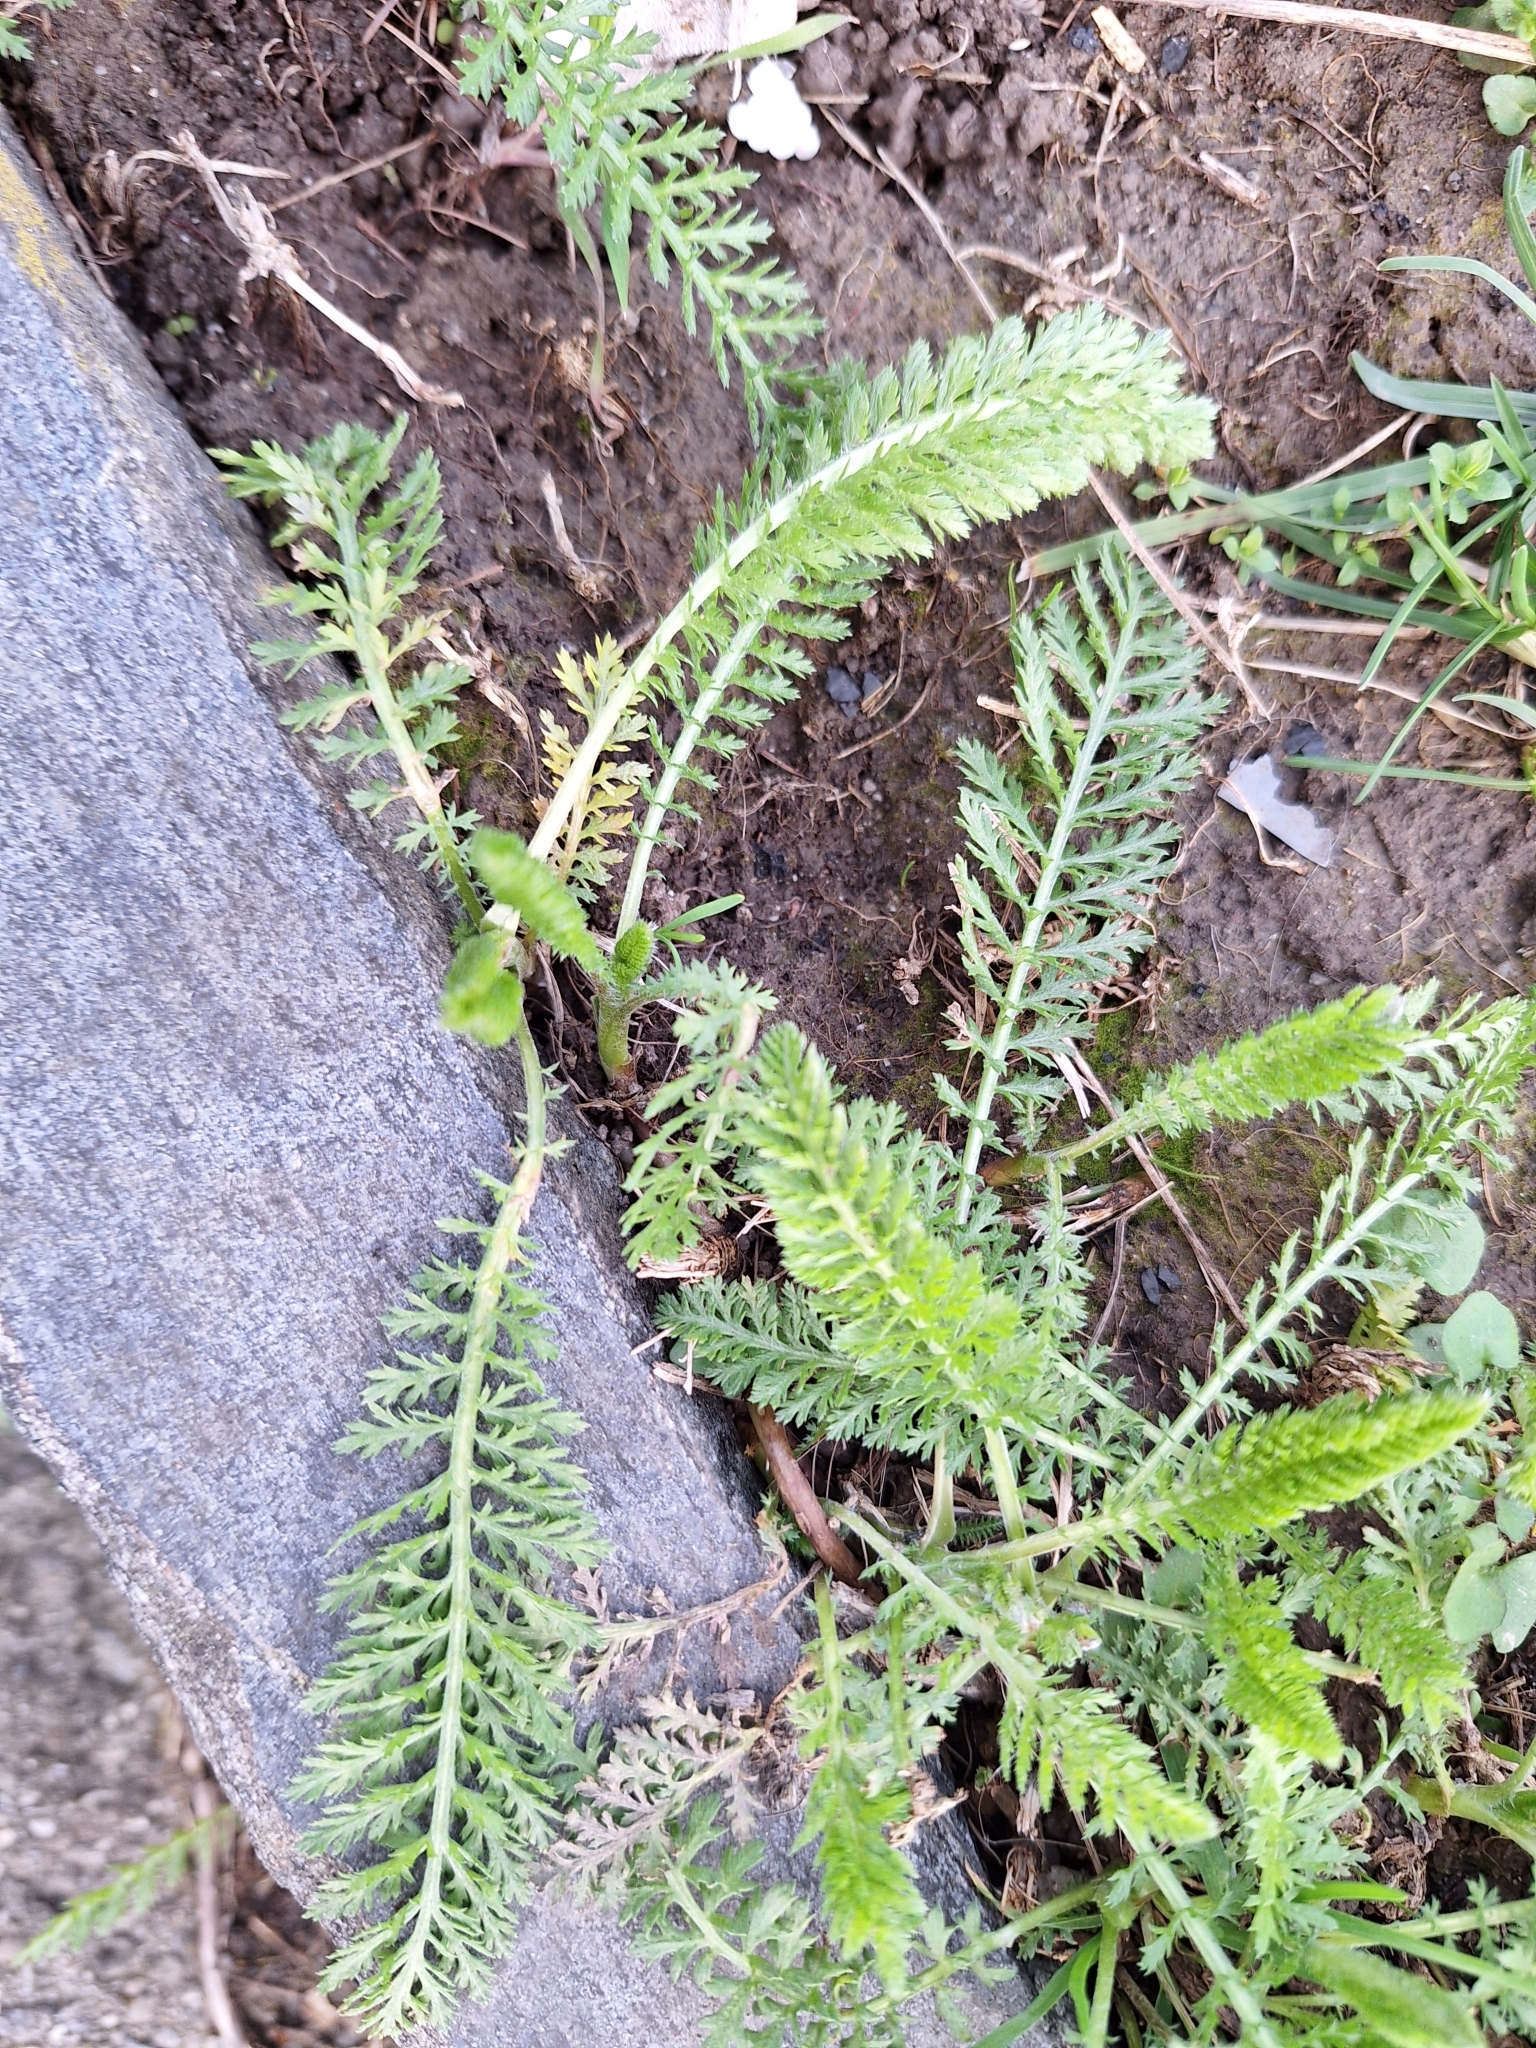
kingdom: Plantae
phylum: Tracheophyta
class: Magnoliopsida
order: Asterales
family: Asteraceae
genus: Achillea
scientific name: Achillea millefolium
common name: Yarrow
